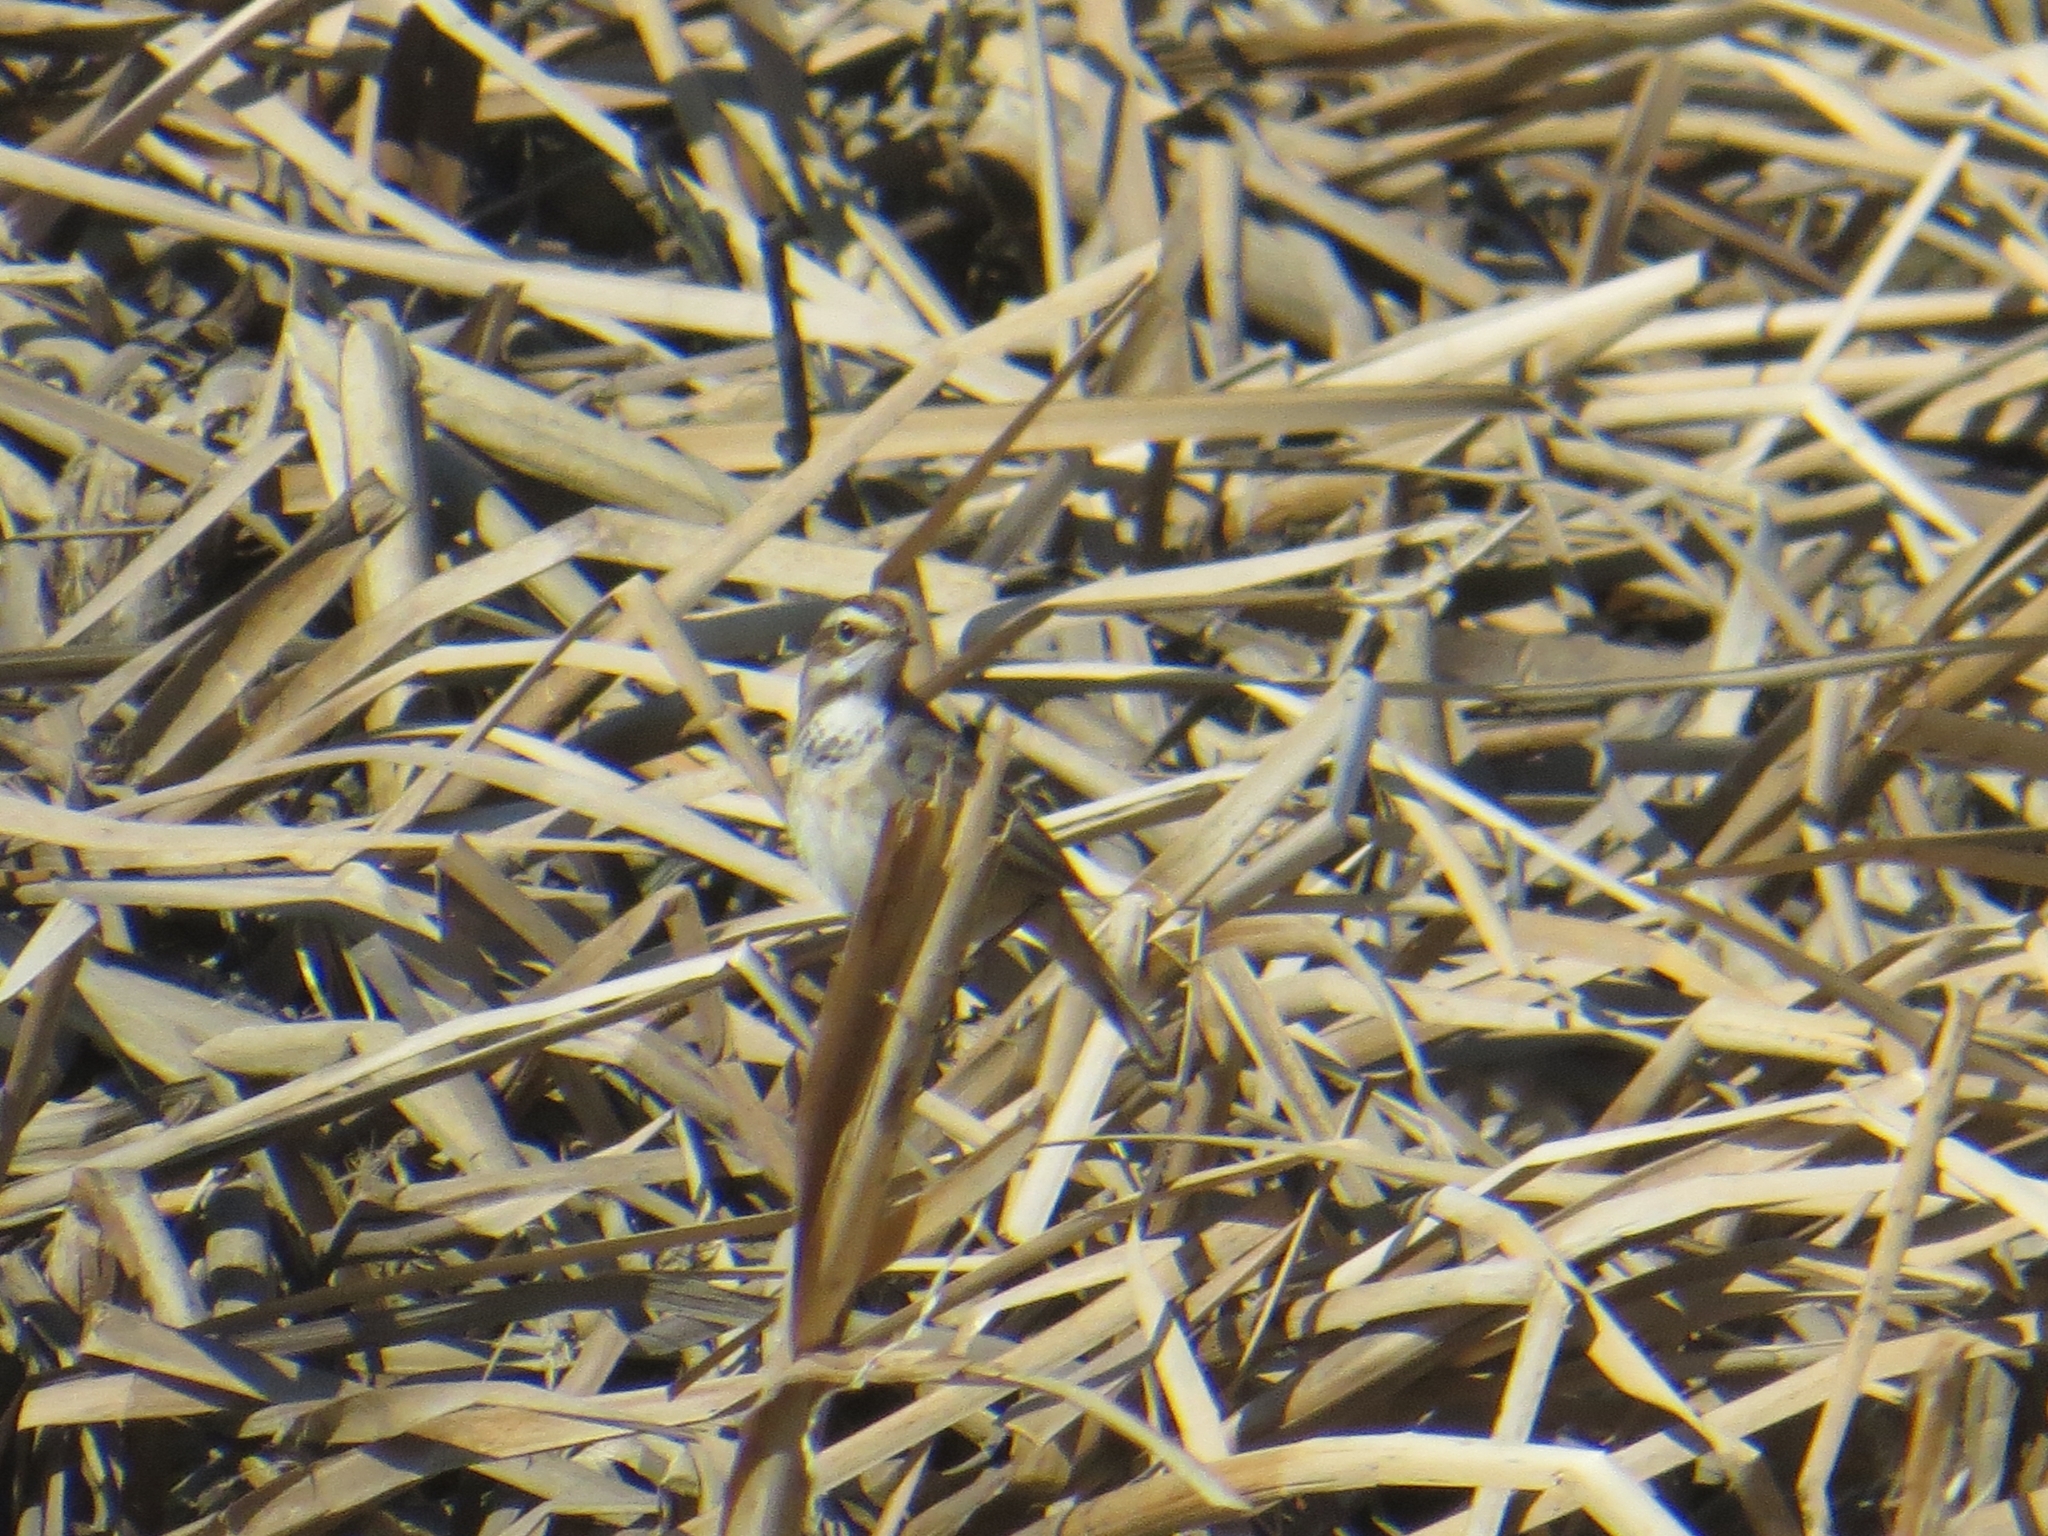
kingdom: Animalia
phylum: Chordata
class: Aves
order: Passeriformes
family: Muscicapidae
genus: Luscinia
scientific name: Luscinia svecica
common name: Bluethroat
